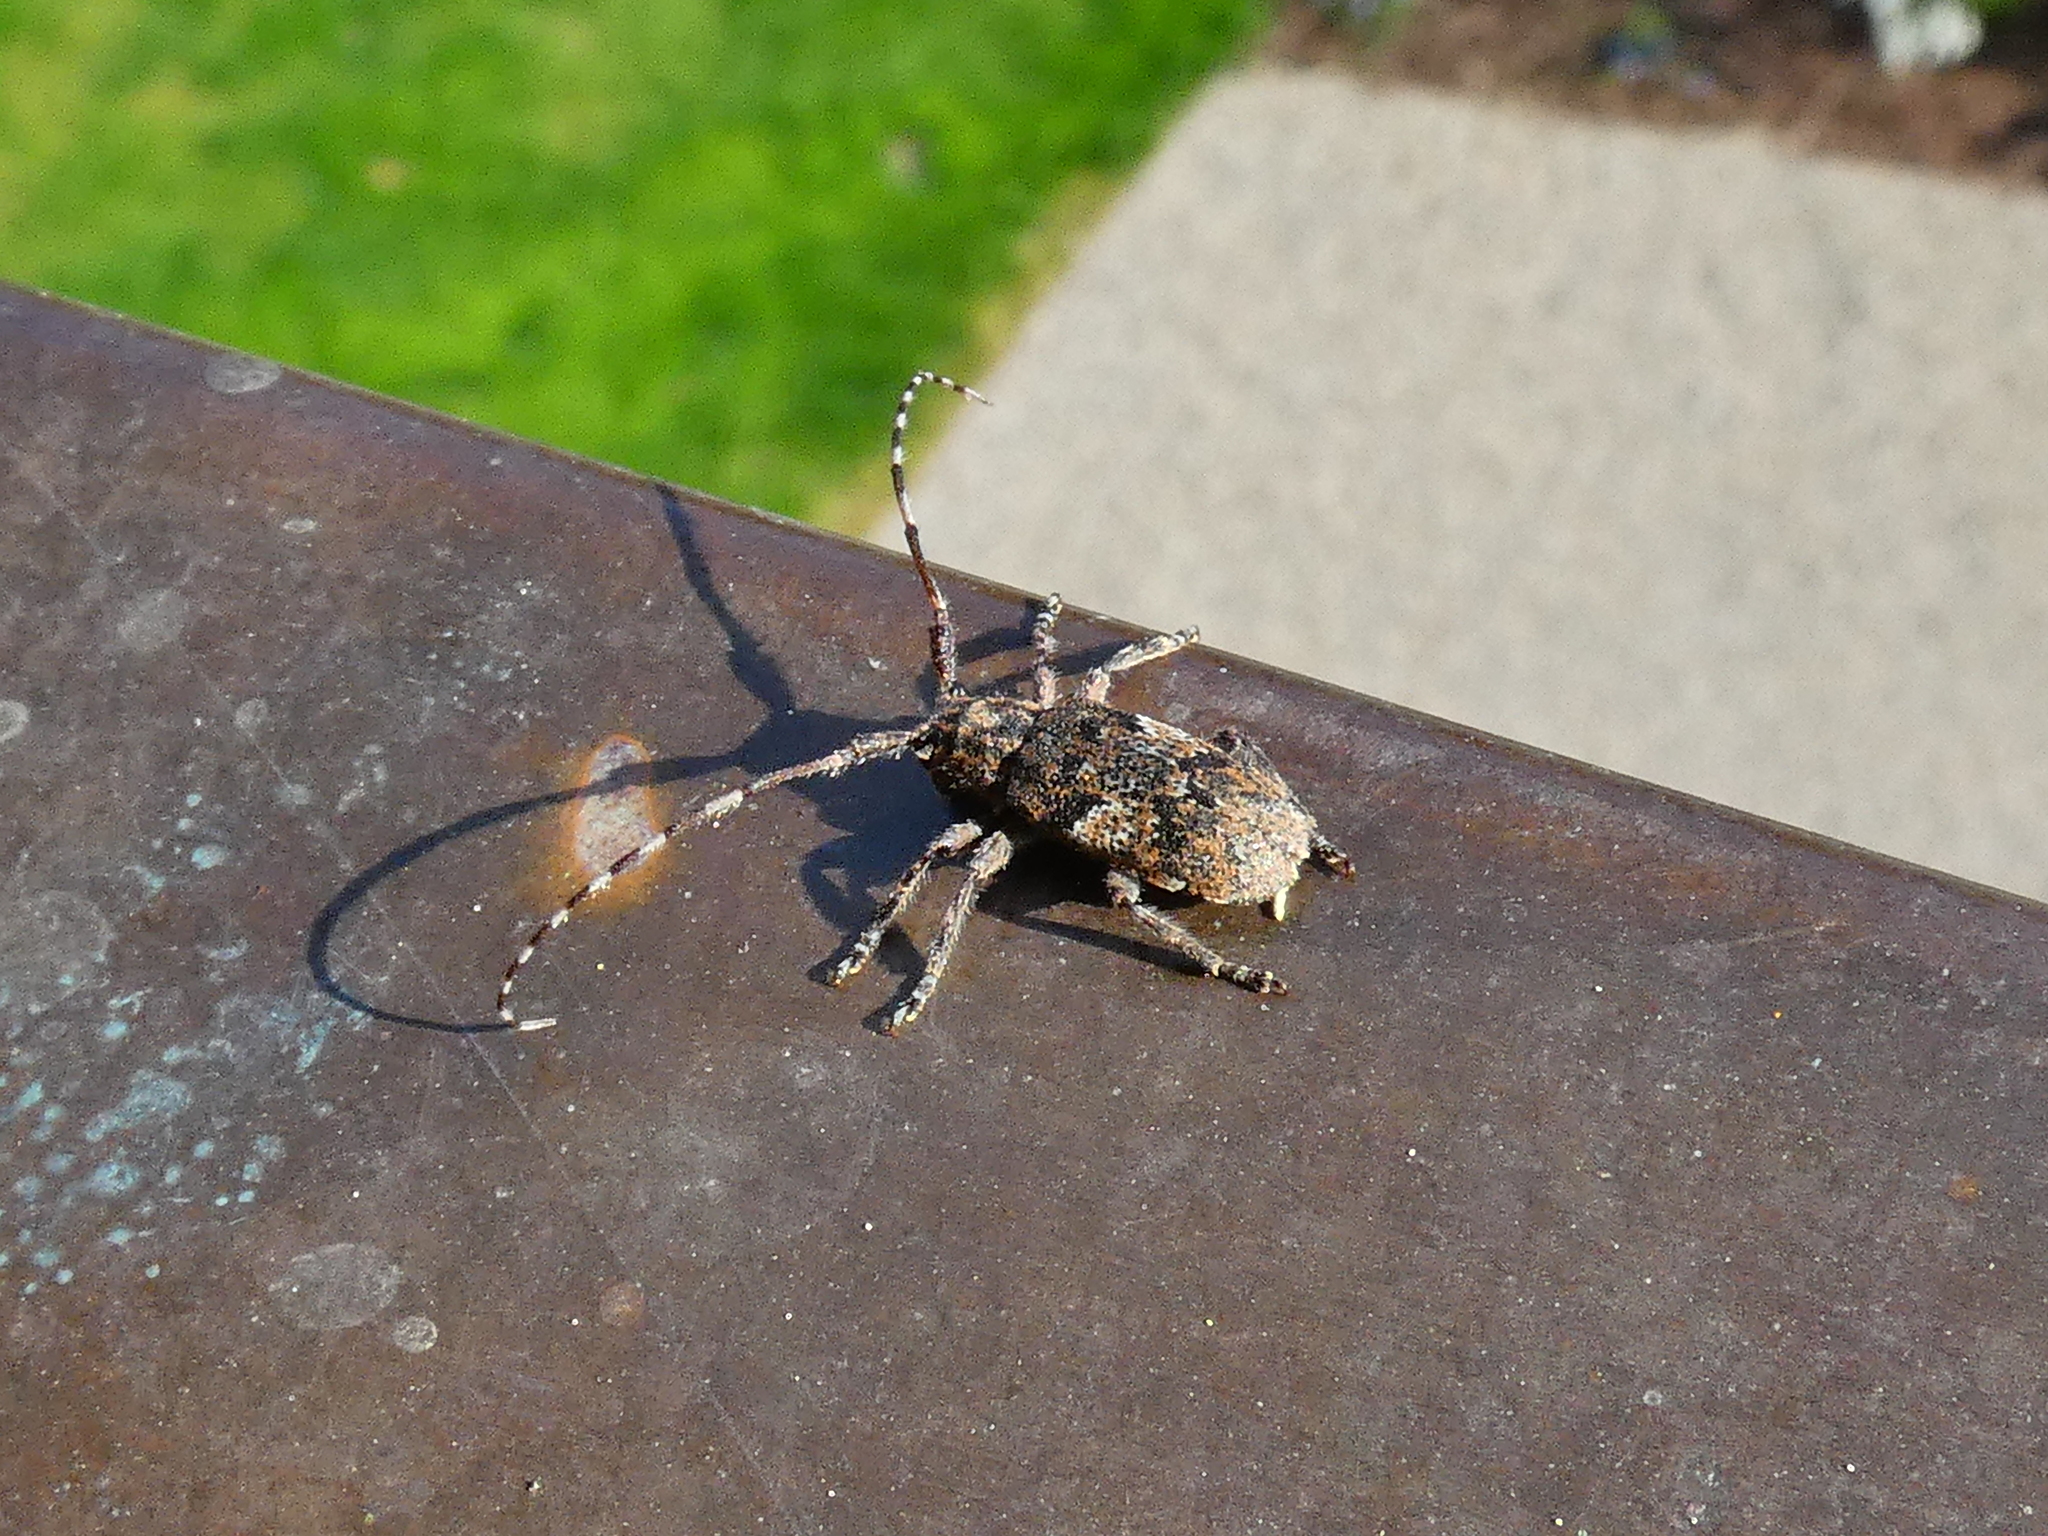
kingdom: Animalia
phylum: Arthropoda
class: Insecta
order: Coleoptera
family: Cerambycidae
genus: Mesosa
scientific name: Mesosa nebulosa
